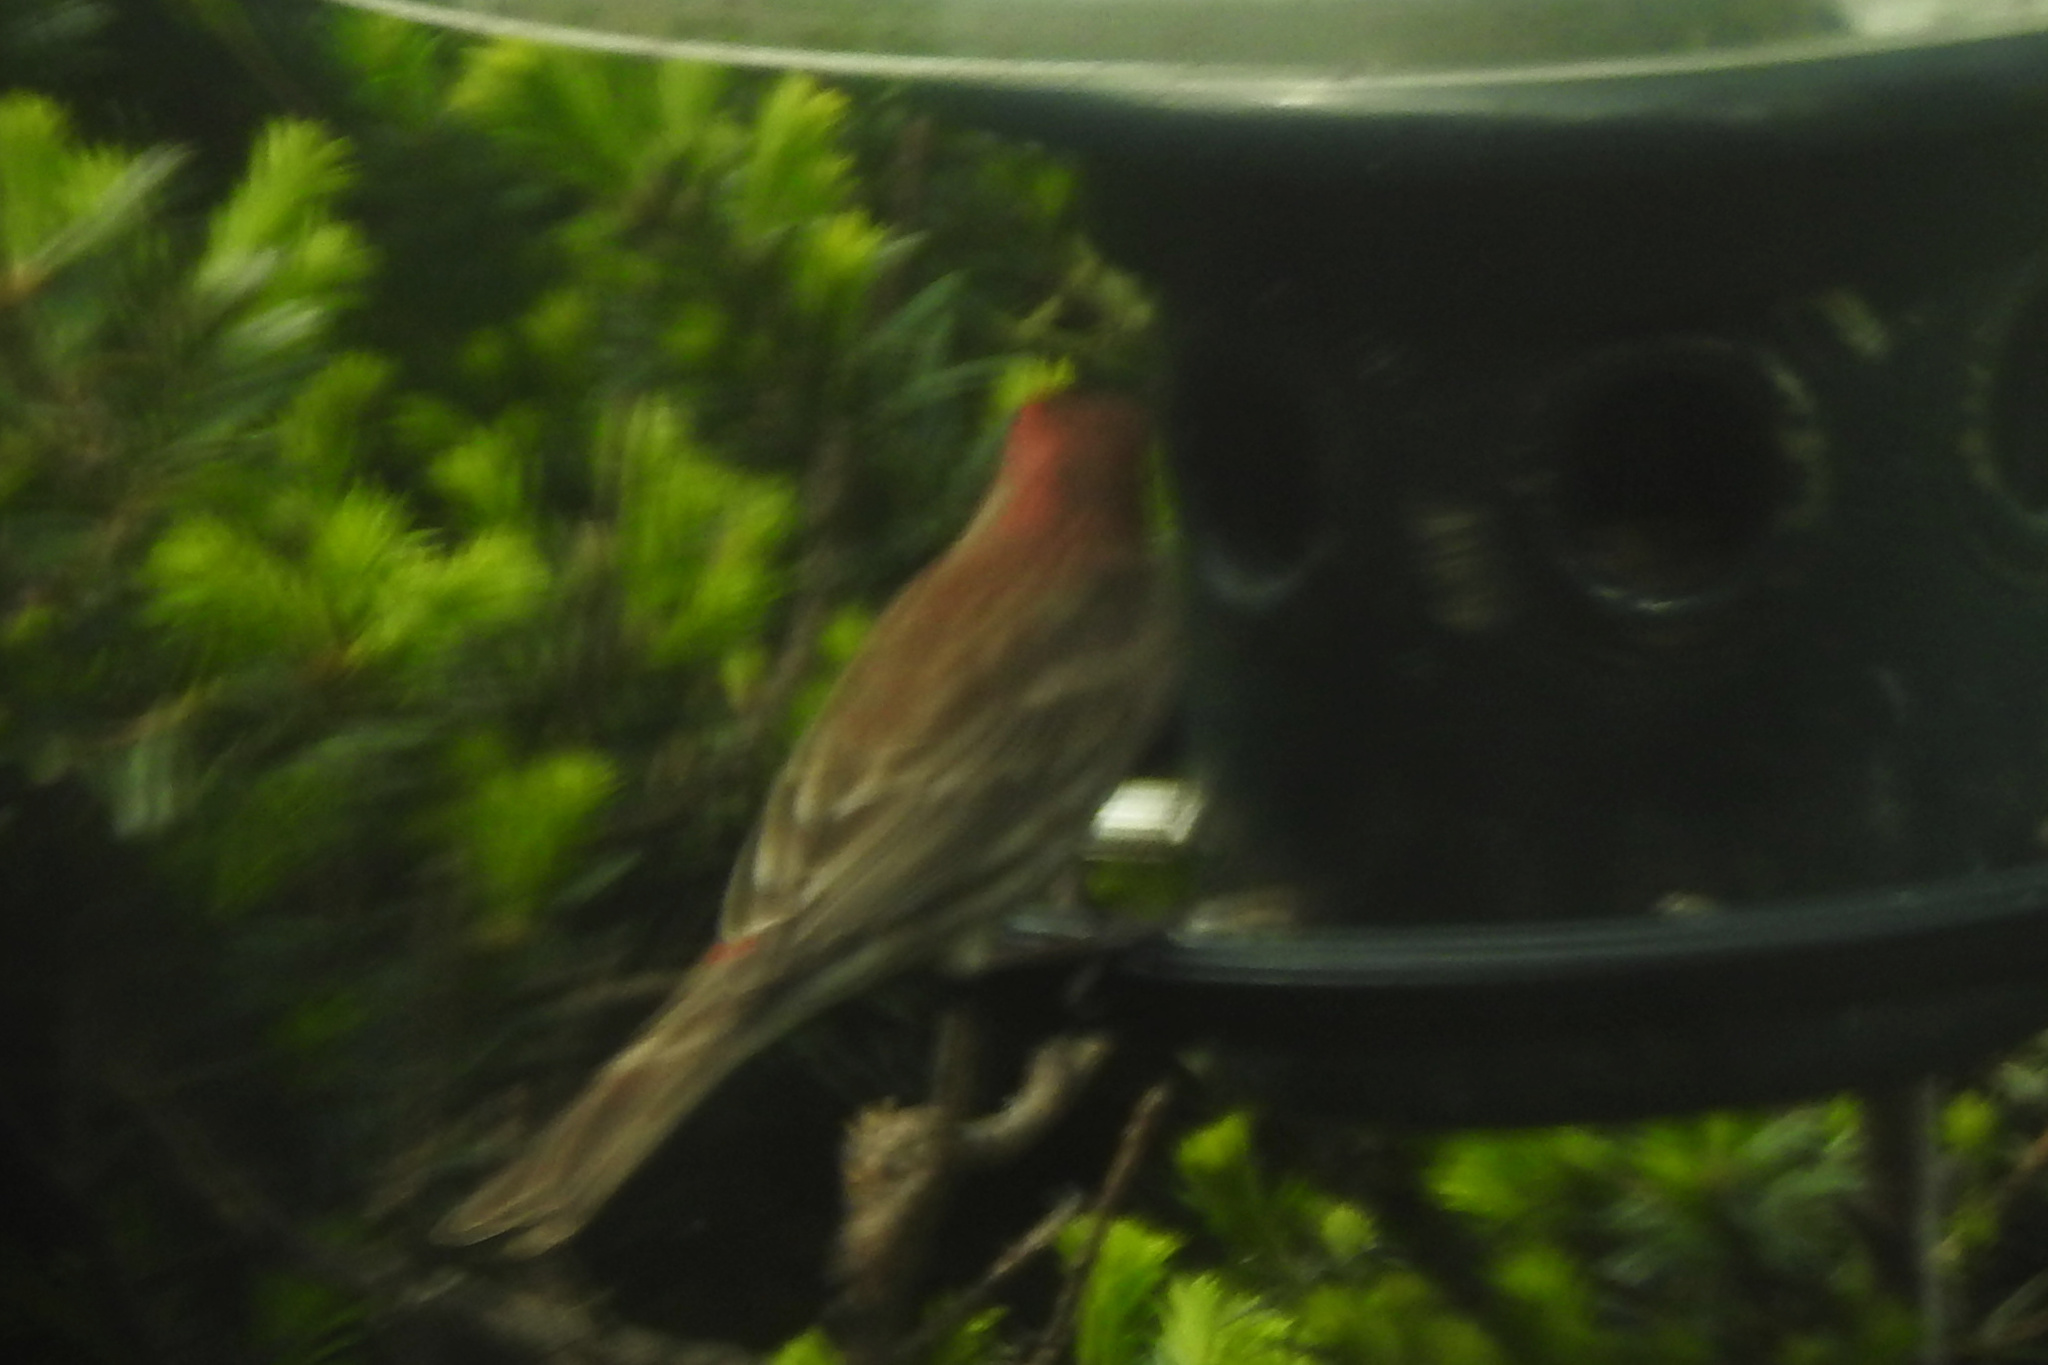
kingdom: Animalia
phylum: Chordata
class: Aves
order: Passeriformes
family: Fringillidae
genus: Haemorhous
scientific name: Haemorhous mexicanus
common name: House finch
